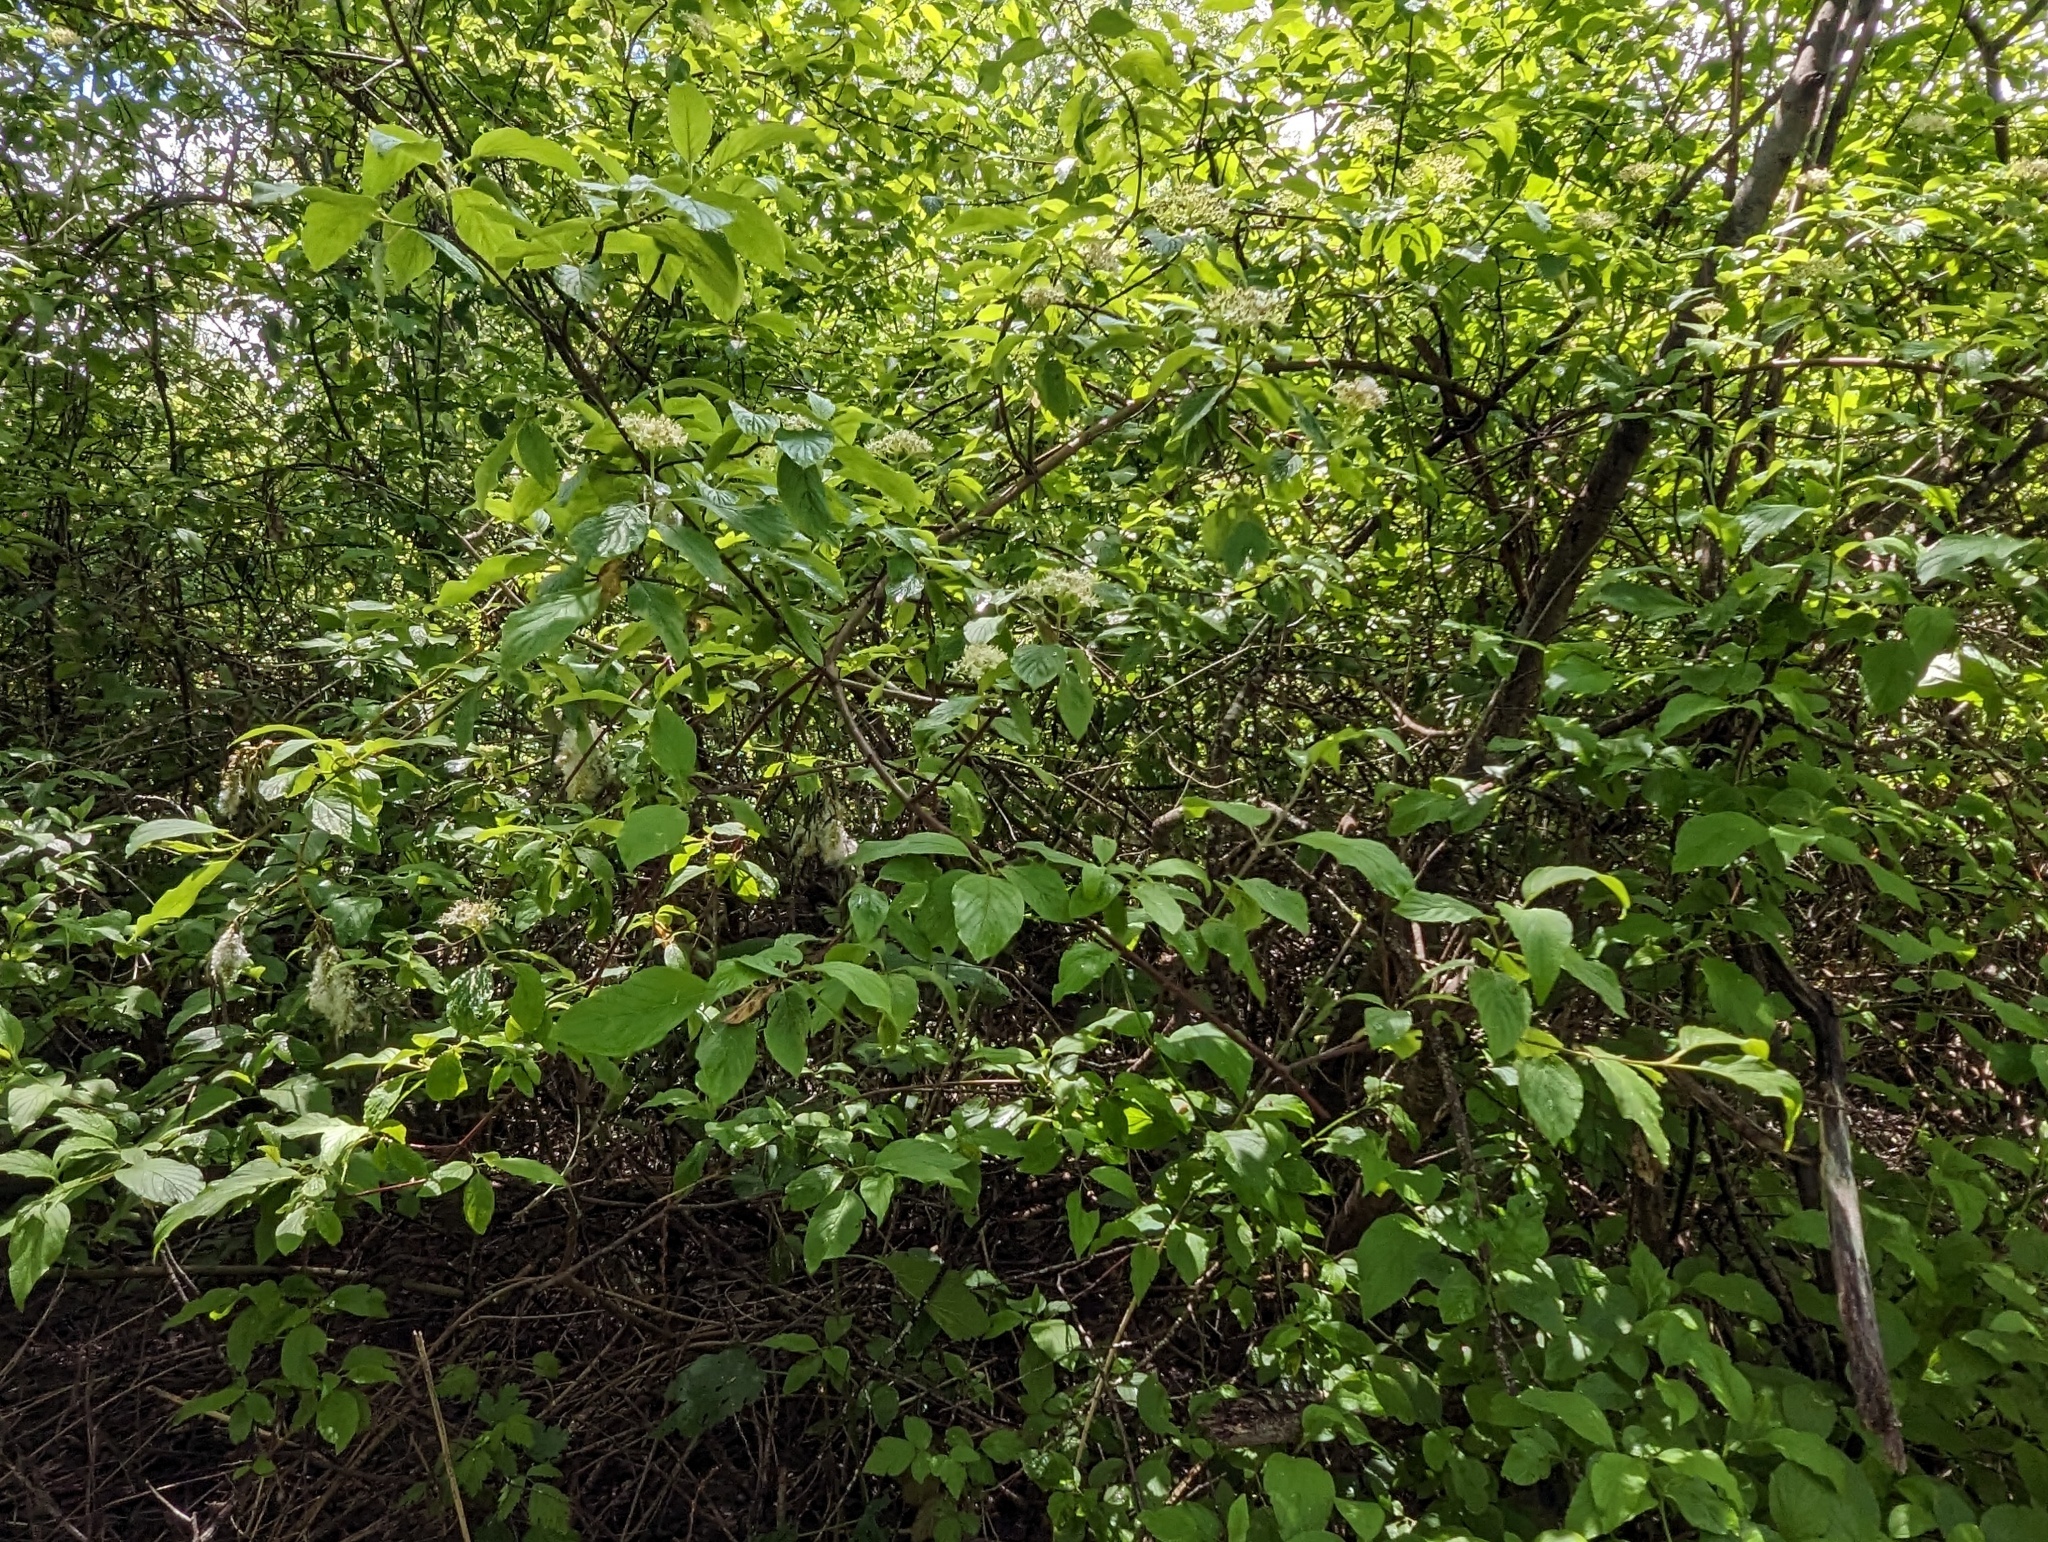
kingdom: Plantae
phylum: Tracheophyta
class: Magnoliopsida
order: Cornales
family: Cornaceae
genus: Cornus
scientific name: Cornus sericea
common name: Red-osier dogwood
